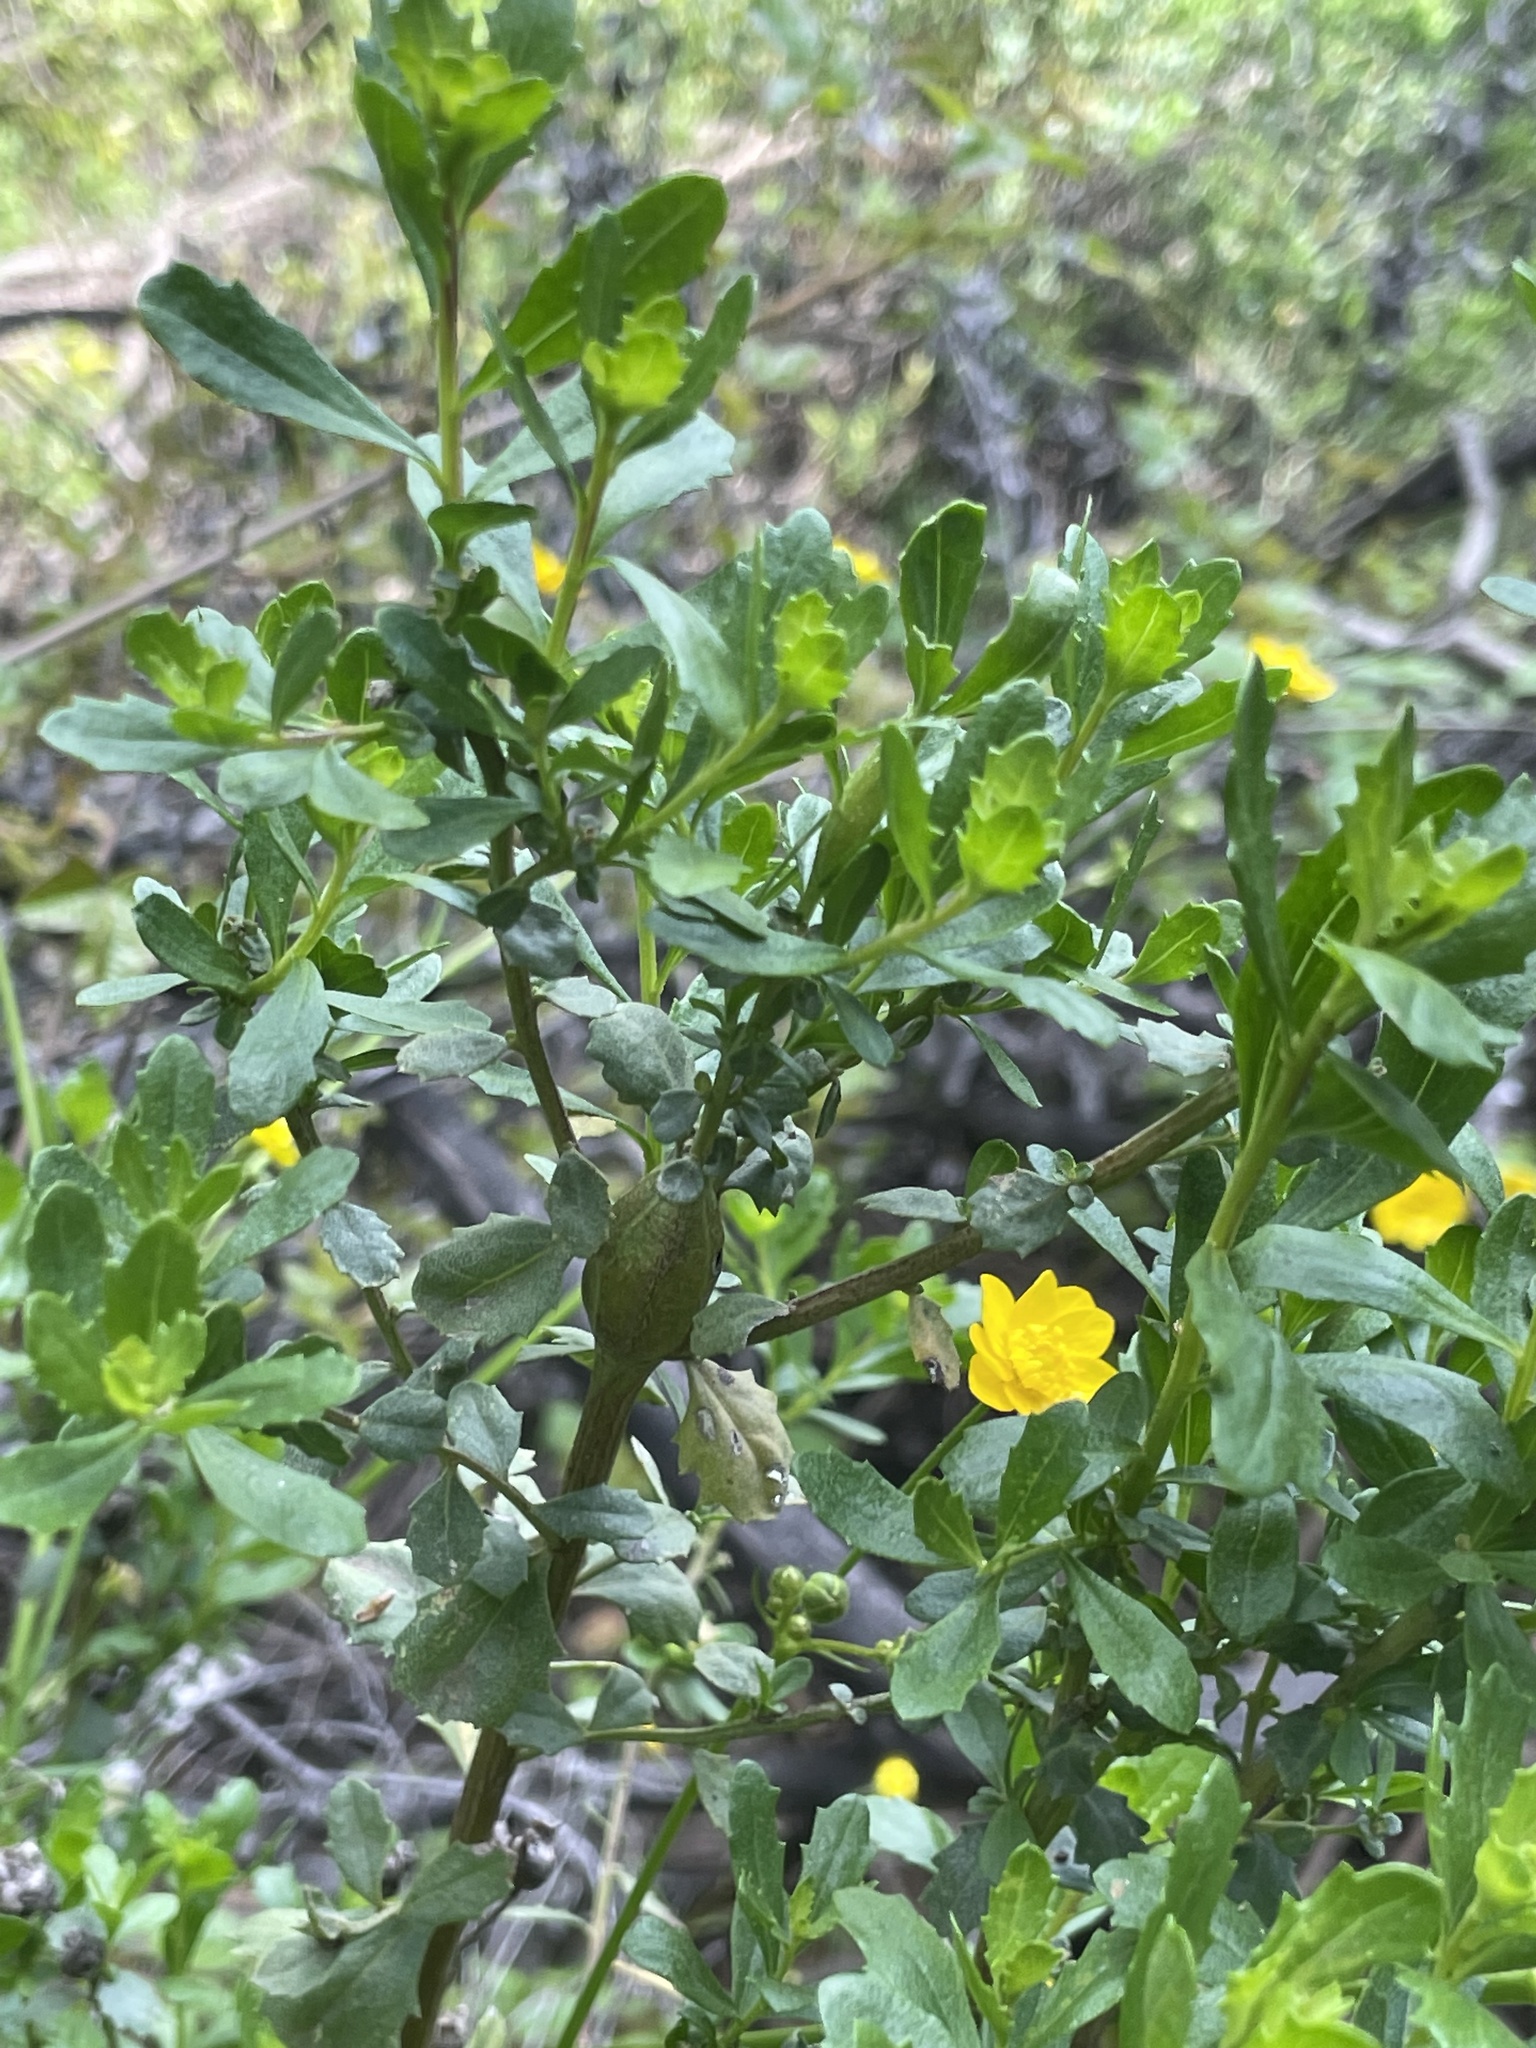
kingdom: Animalia
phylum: Arthropoda
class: Insecta
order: Lepidoptera
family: Gelechiidae
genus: Gnorimoschema
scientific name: Gnorimoschema baccharisella
